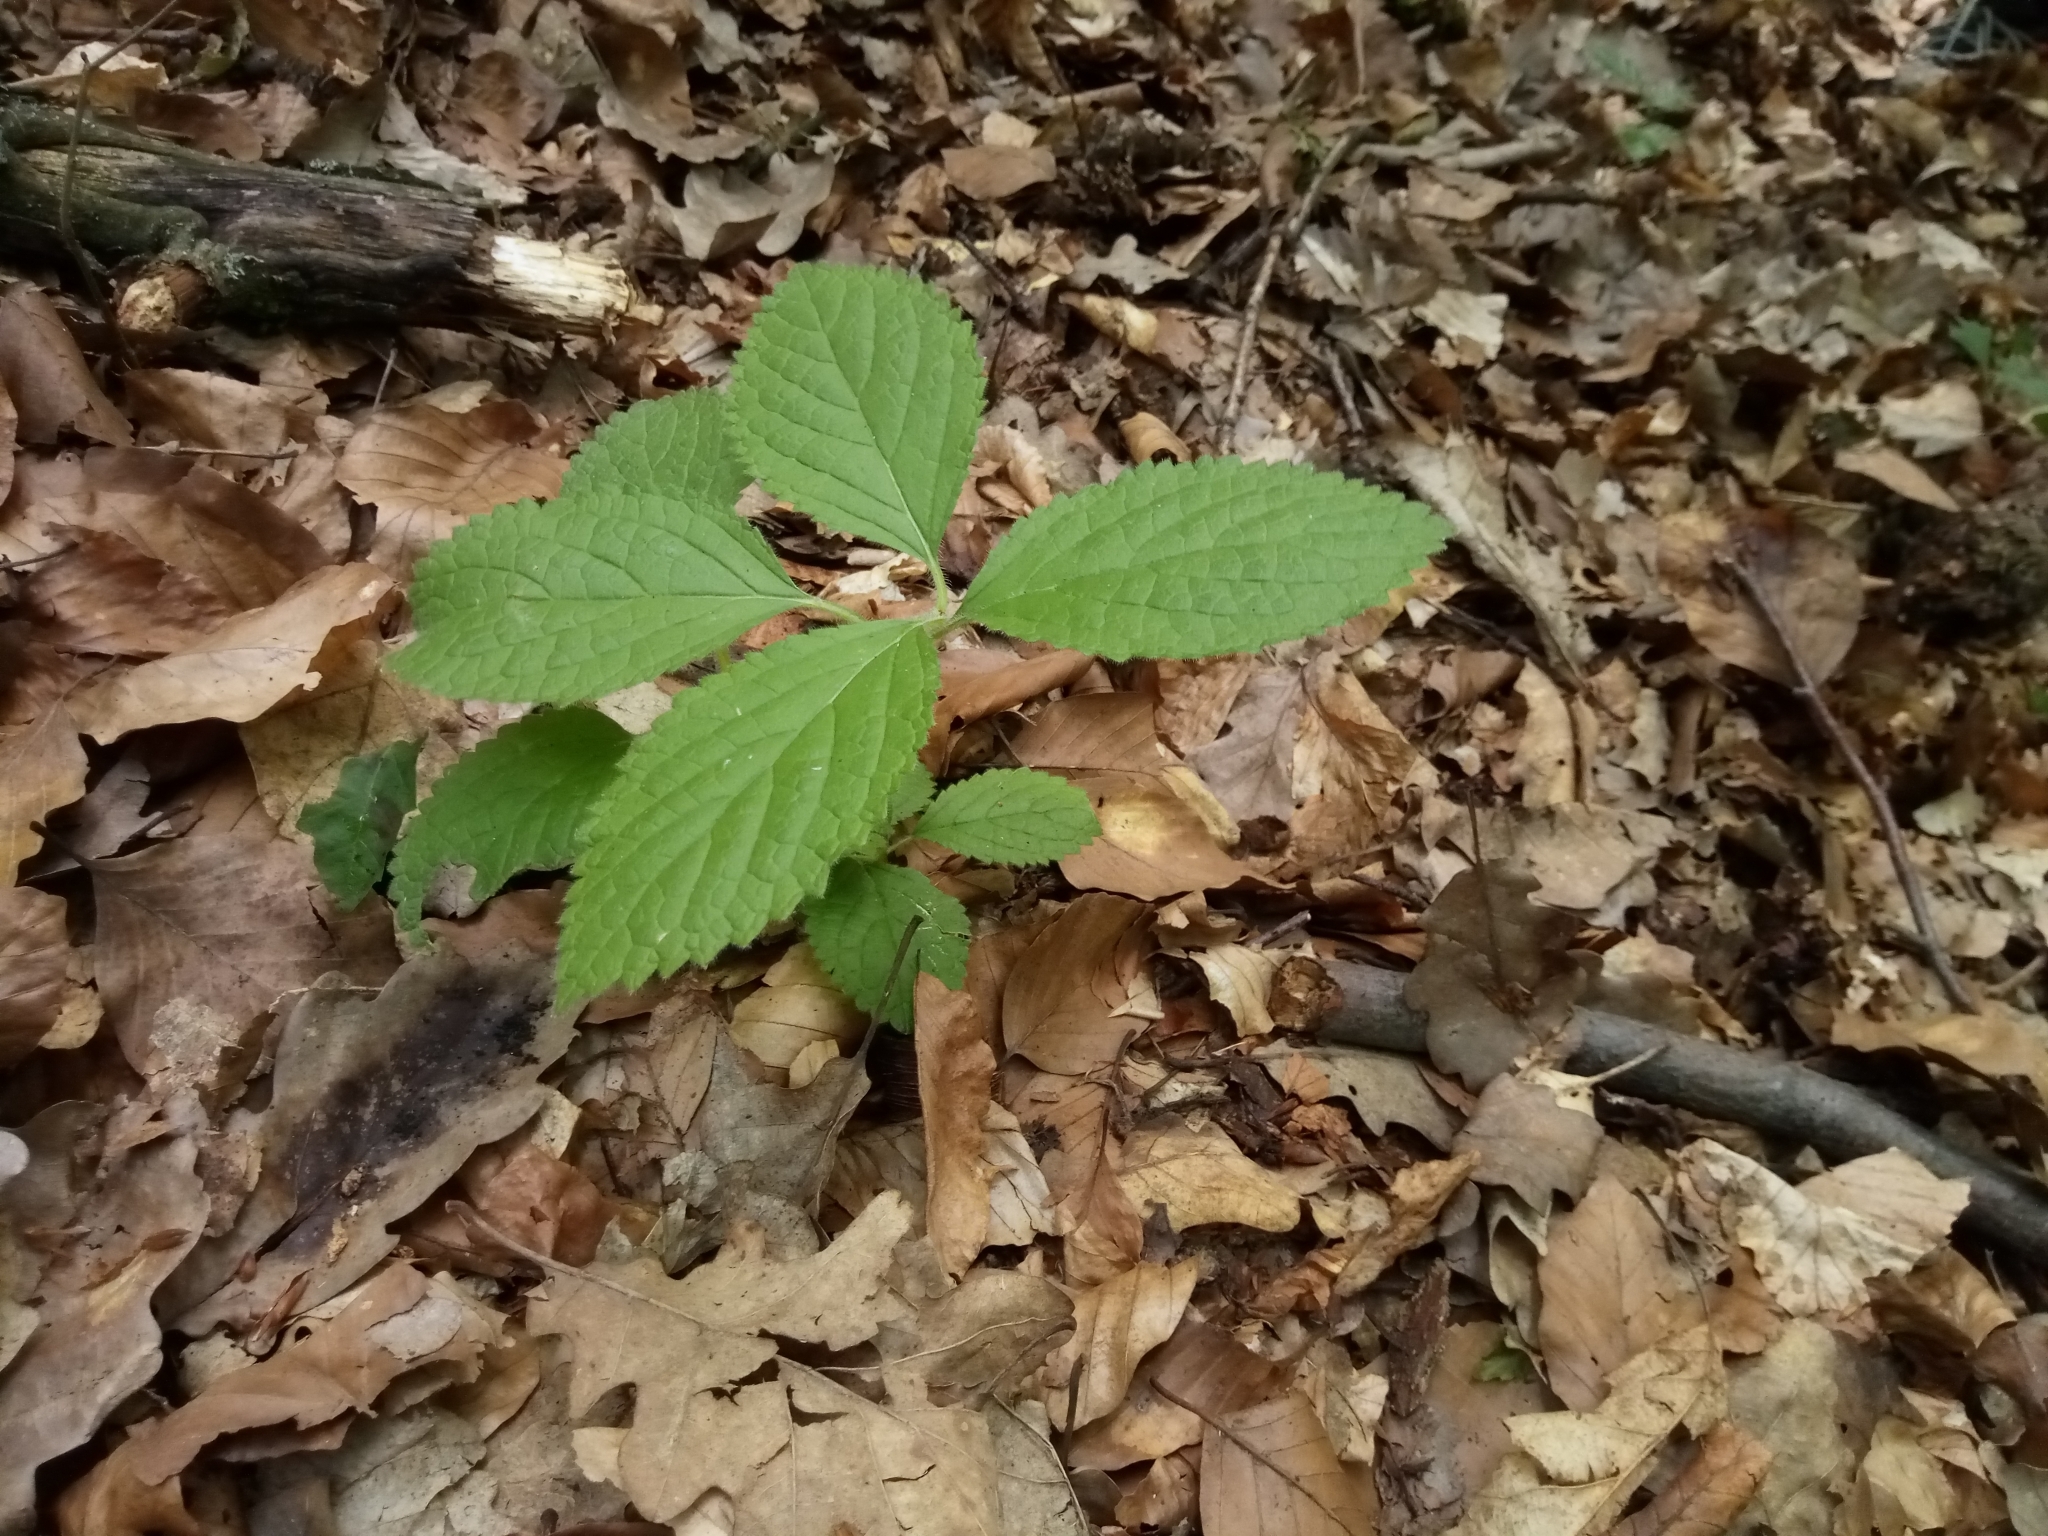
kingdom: Plantae
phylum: Tracheophyta
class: Magnoliopsida
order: Lamiales
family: Lamiaceae
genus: Melittis
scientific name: Melittis melissophyllum
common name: Bastard balm
